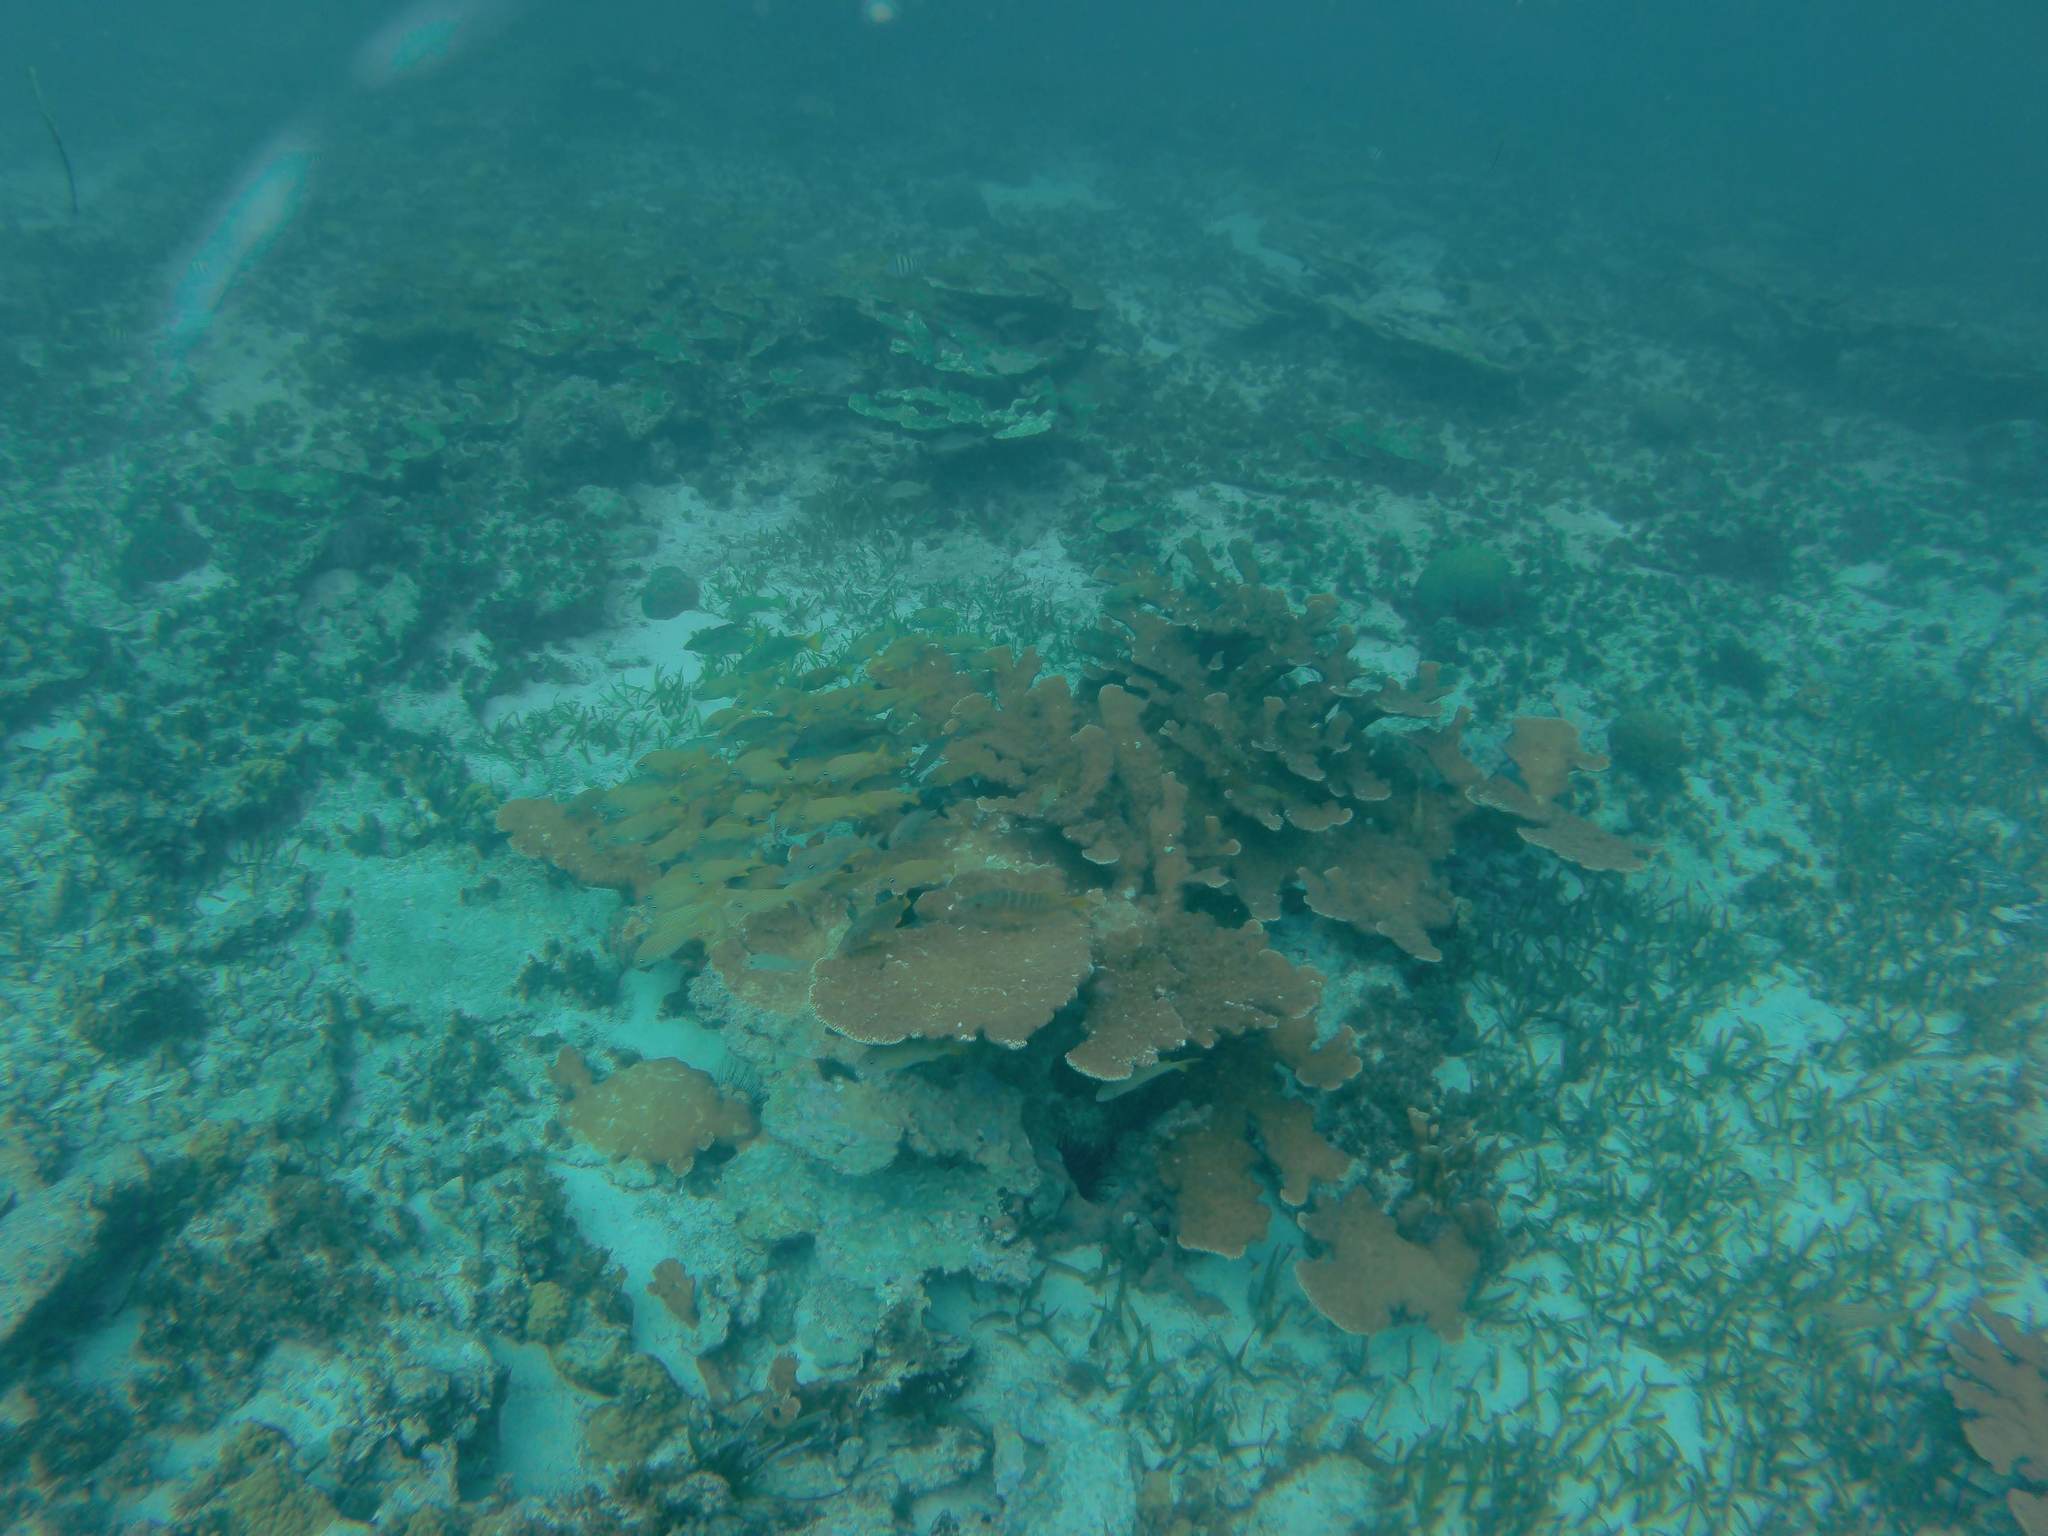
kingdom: Animalia
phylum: Cnidaria
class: Anthozoa
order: Scleractinia
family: Acroporidae
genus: Acropora
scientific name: Acropora palmata
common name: Elkhorn coral
